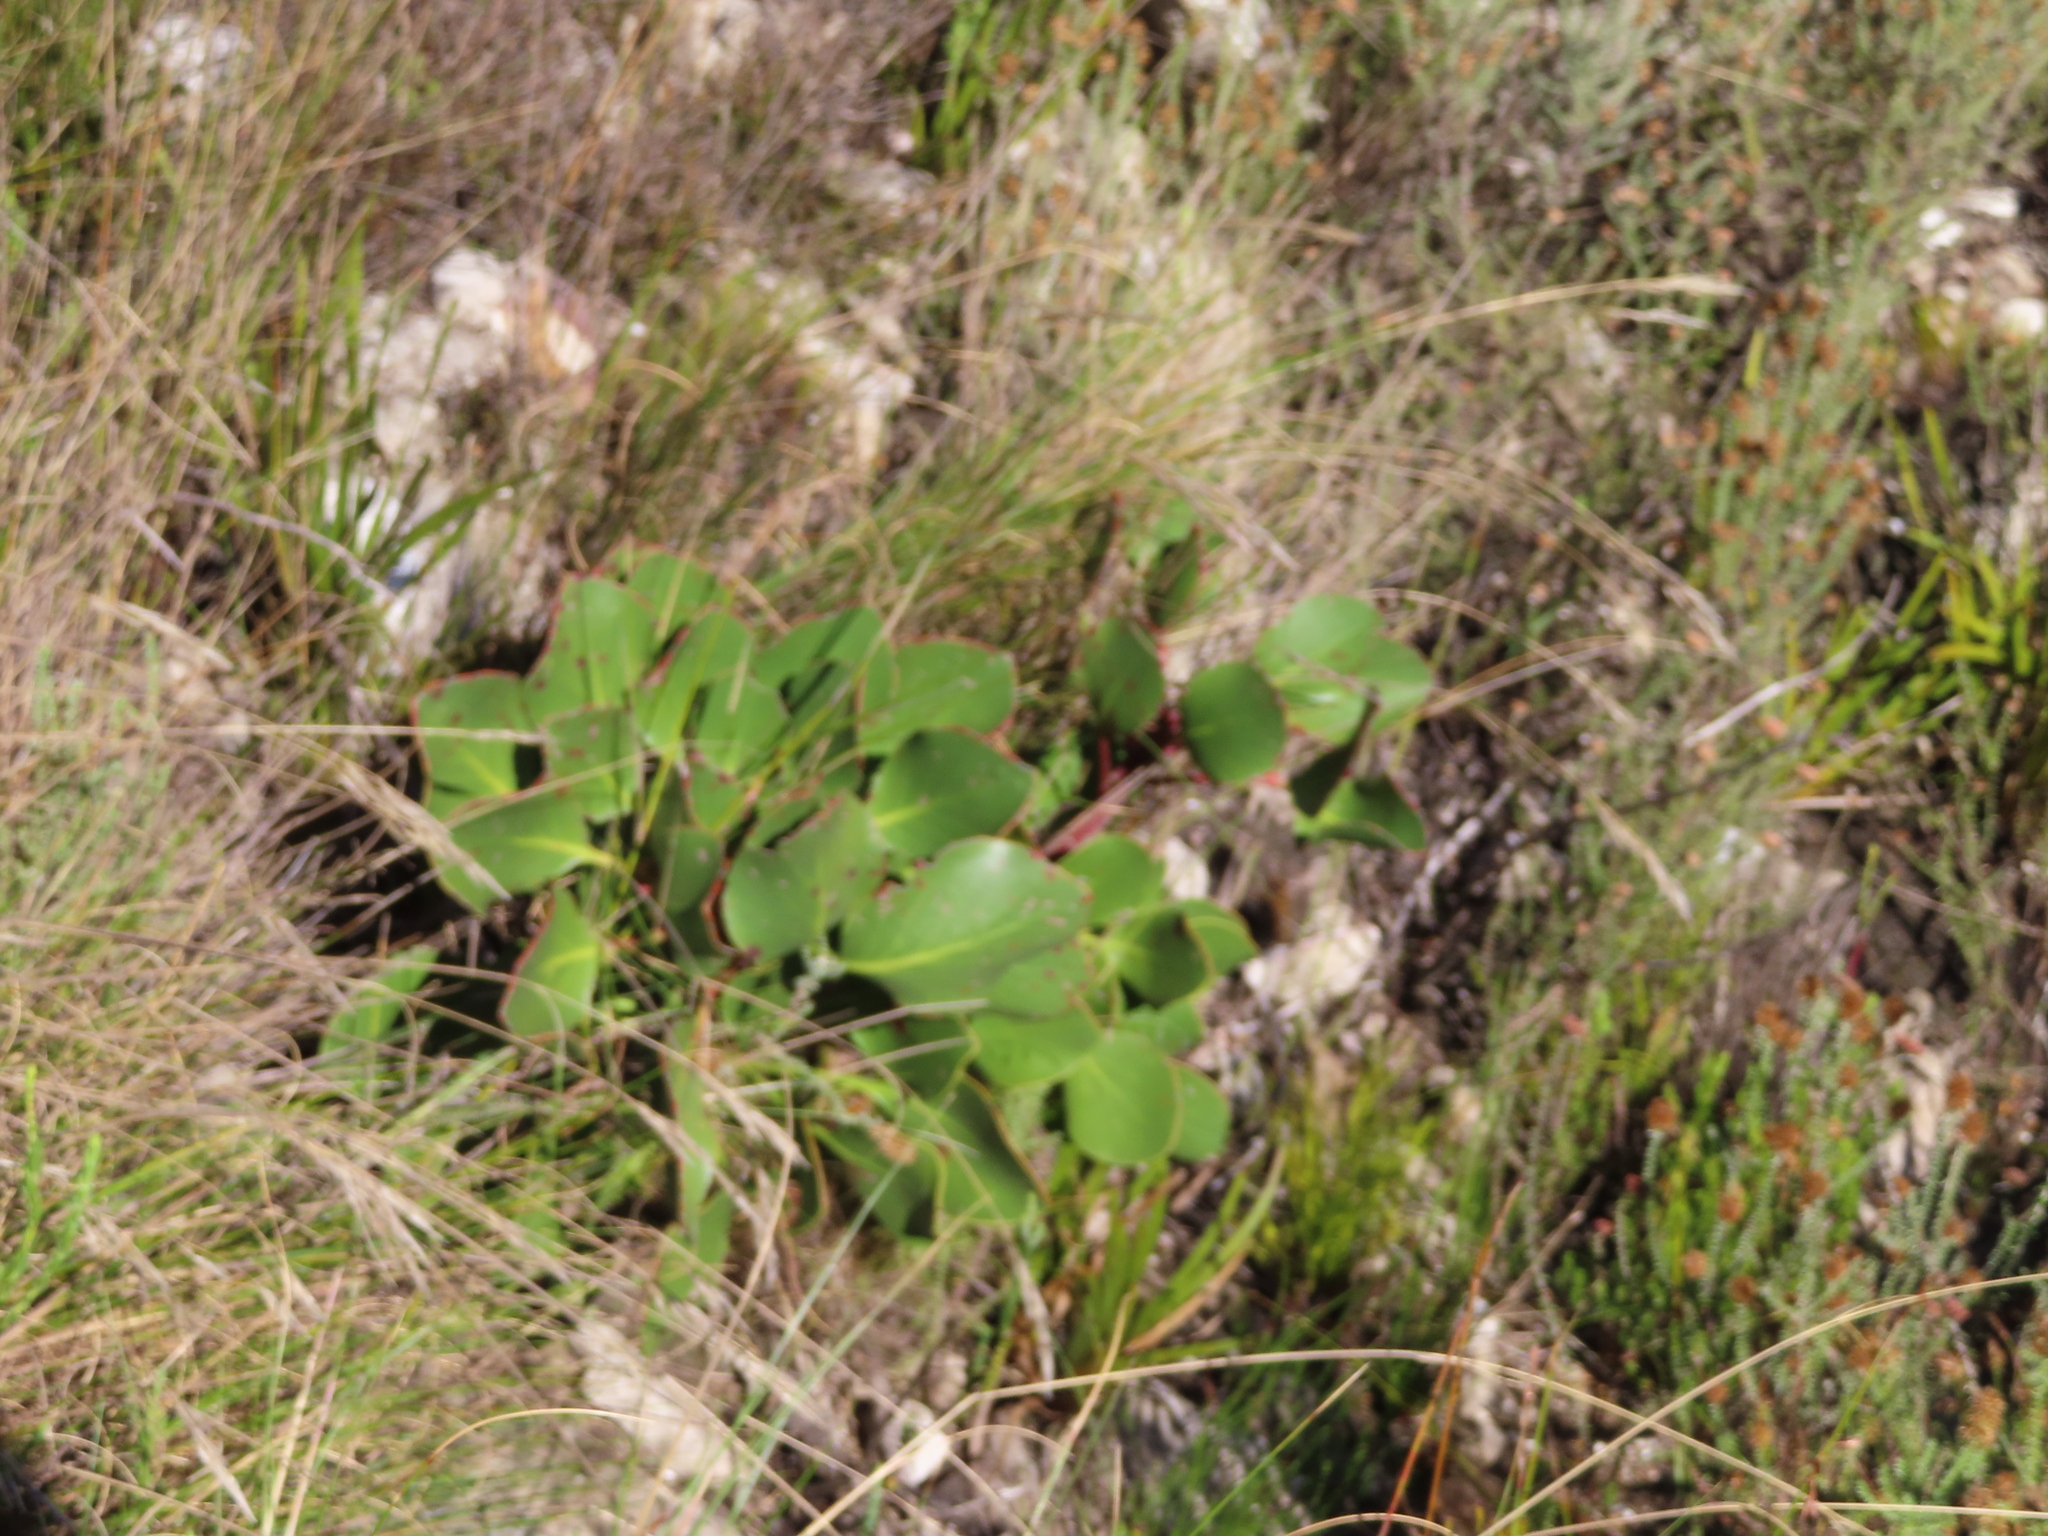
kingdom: Plantae
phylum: Tracheophyta
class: Magnoliopsida
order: Proteales
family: Proteaceae
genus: Protea
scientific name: Protea cynaroides
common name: King protea
